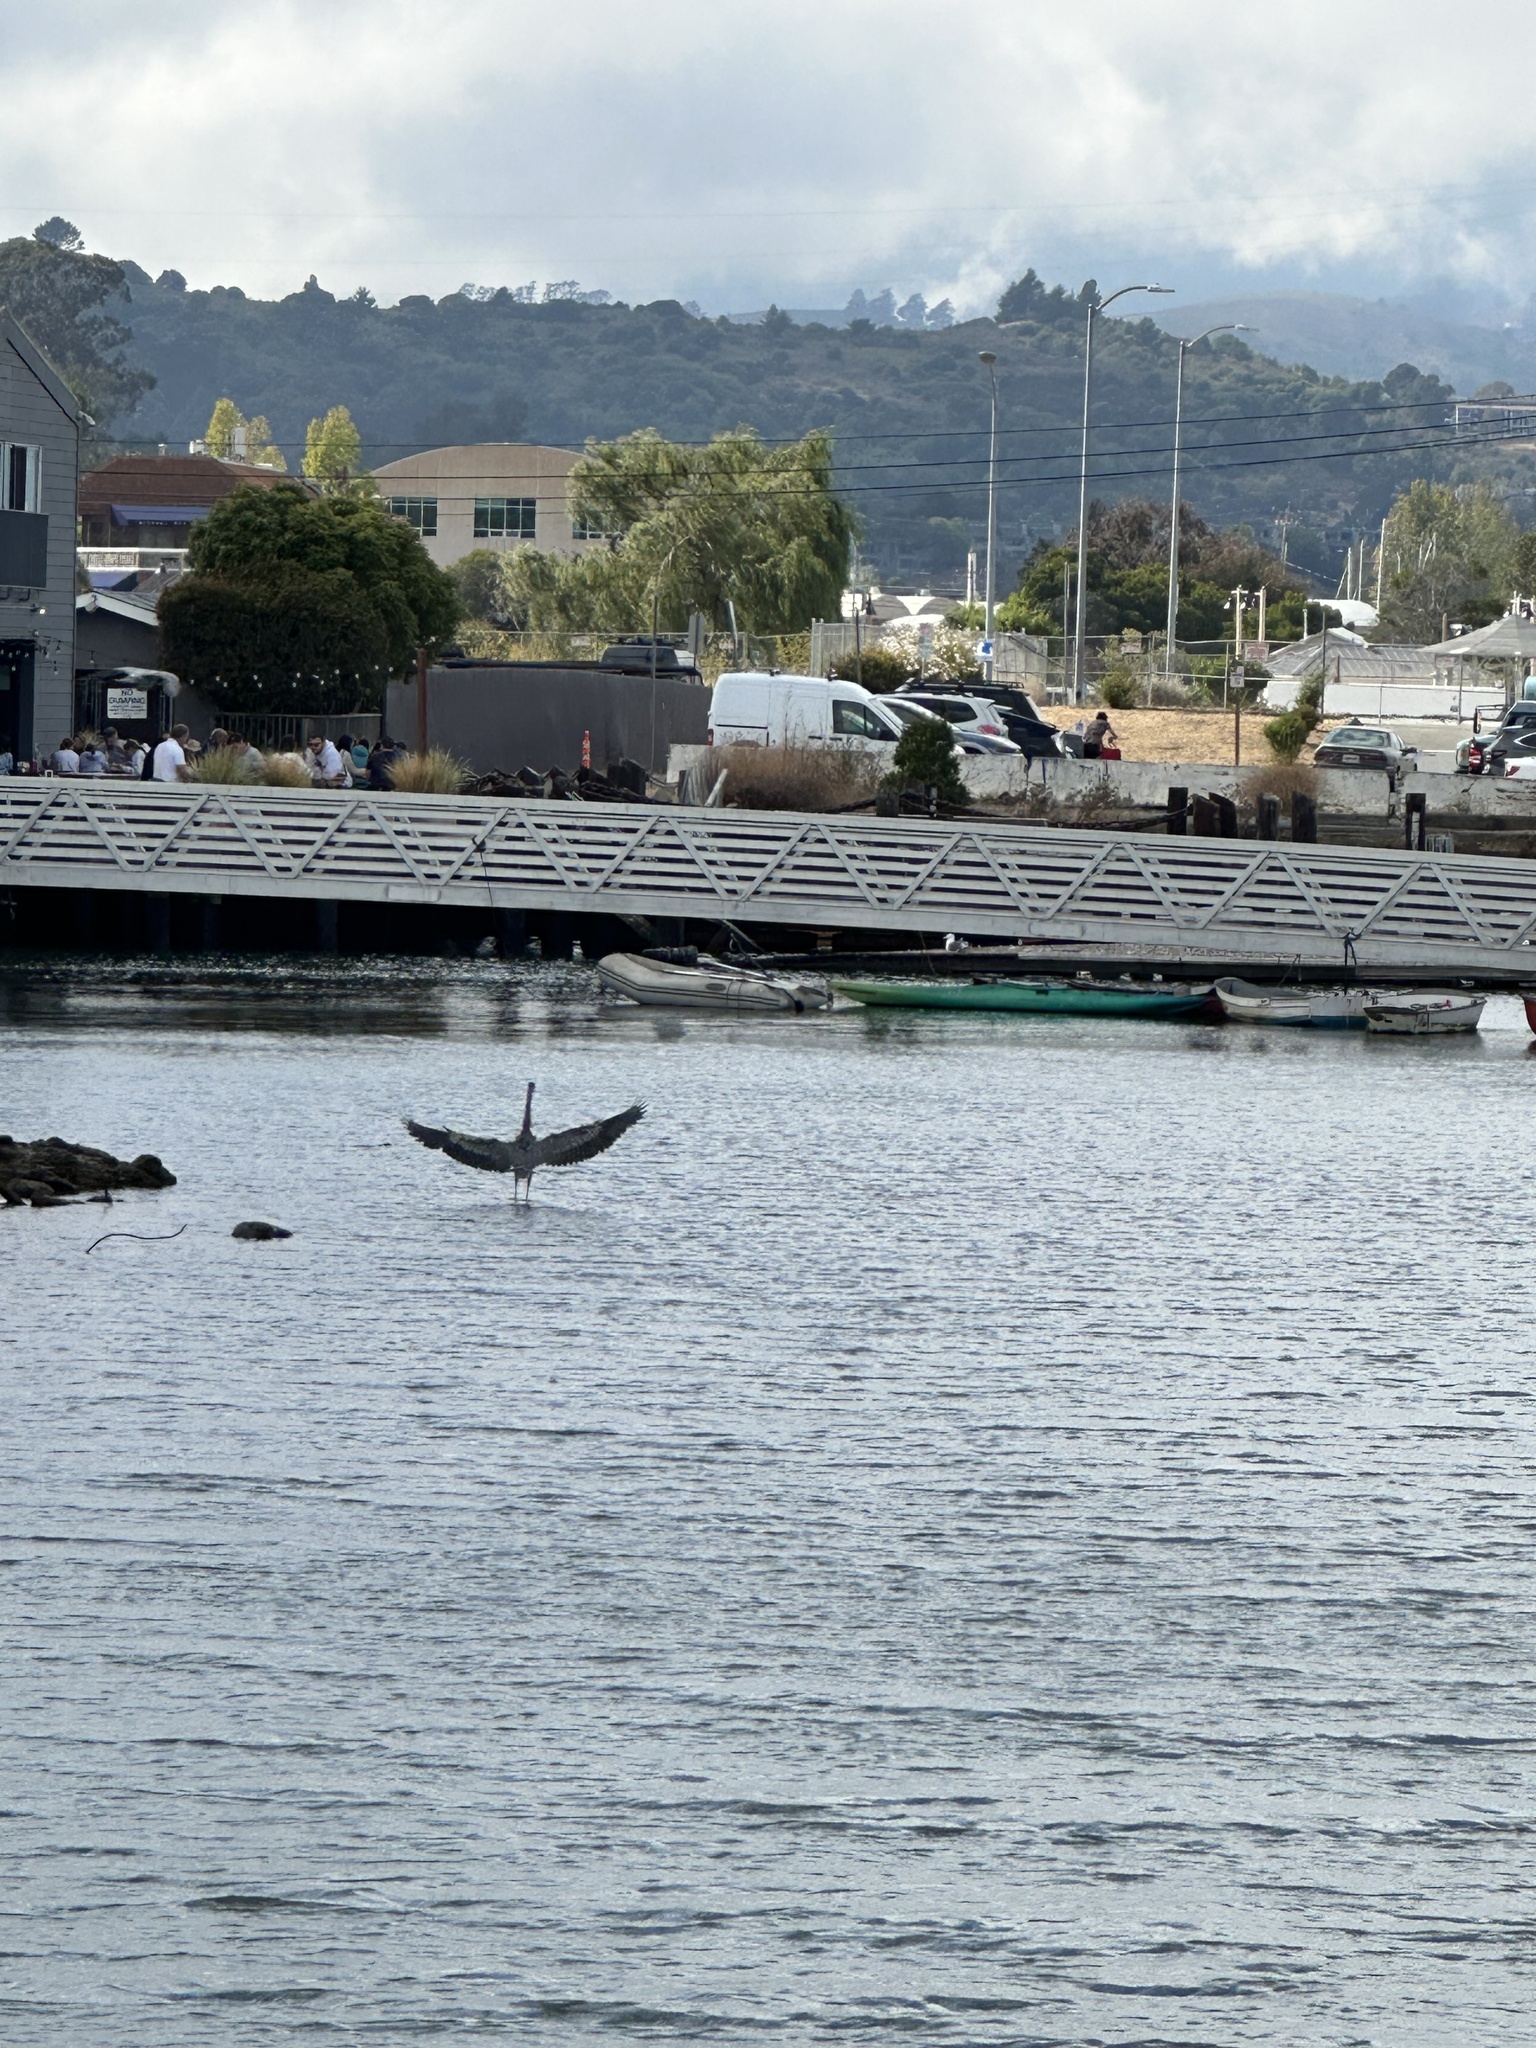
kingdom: Animalia
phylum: Chordata
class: Aves
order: Pelecaniformes
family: Ardeidae
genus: Ardea
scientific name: Ardea herodias
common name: Great blue heron
